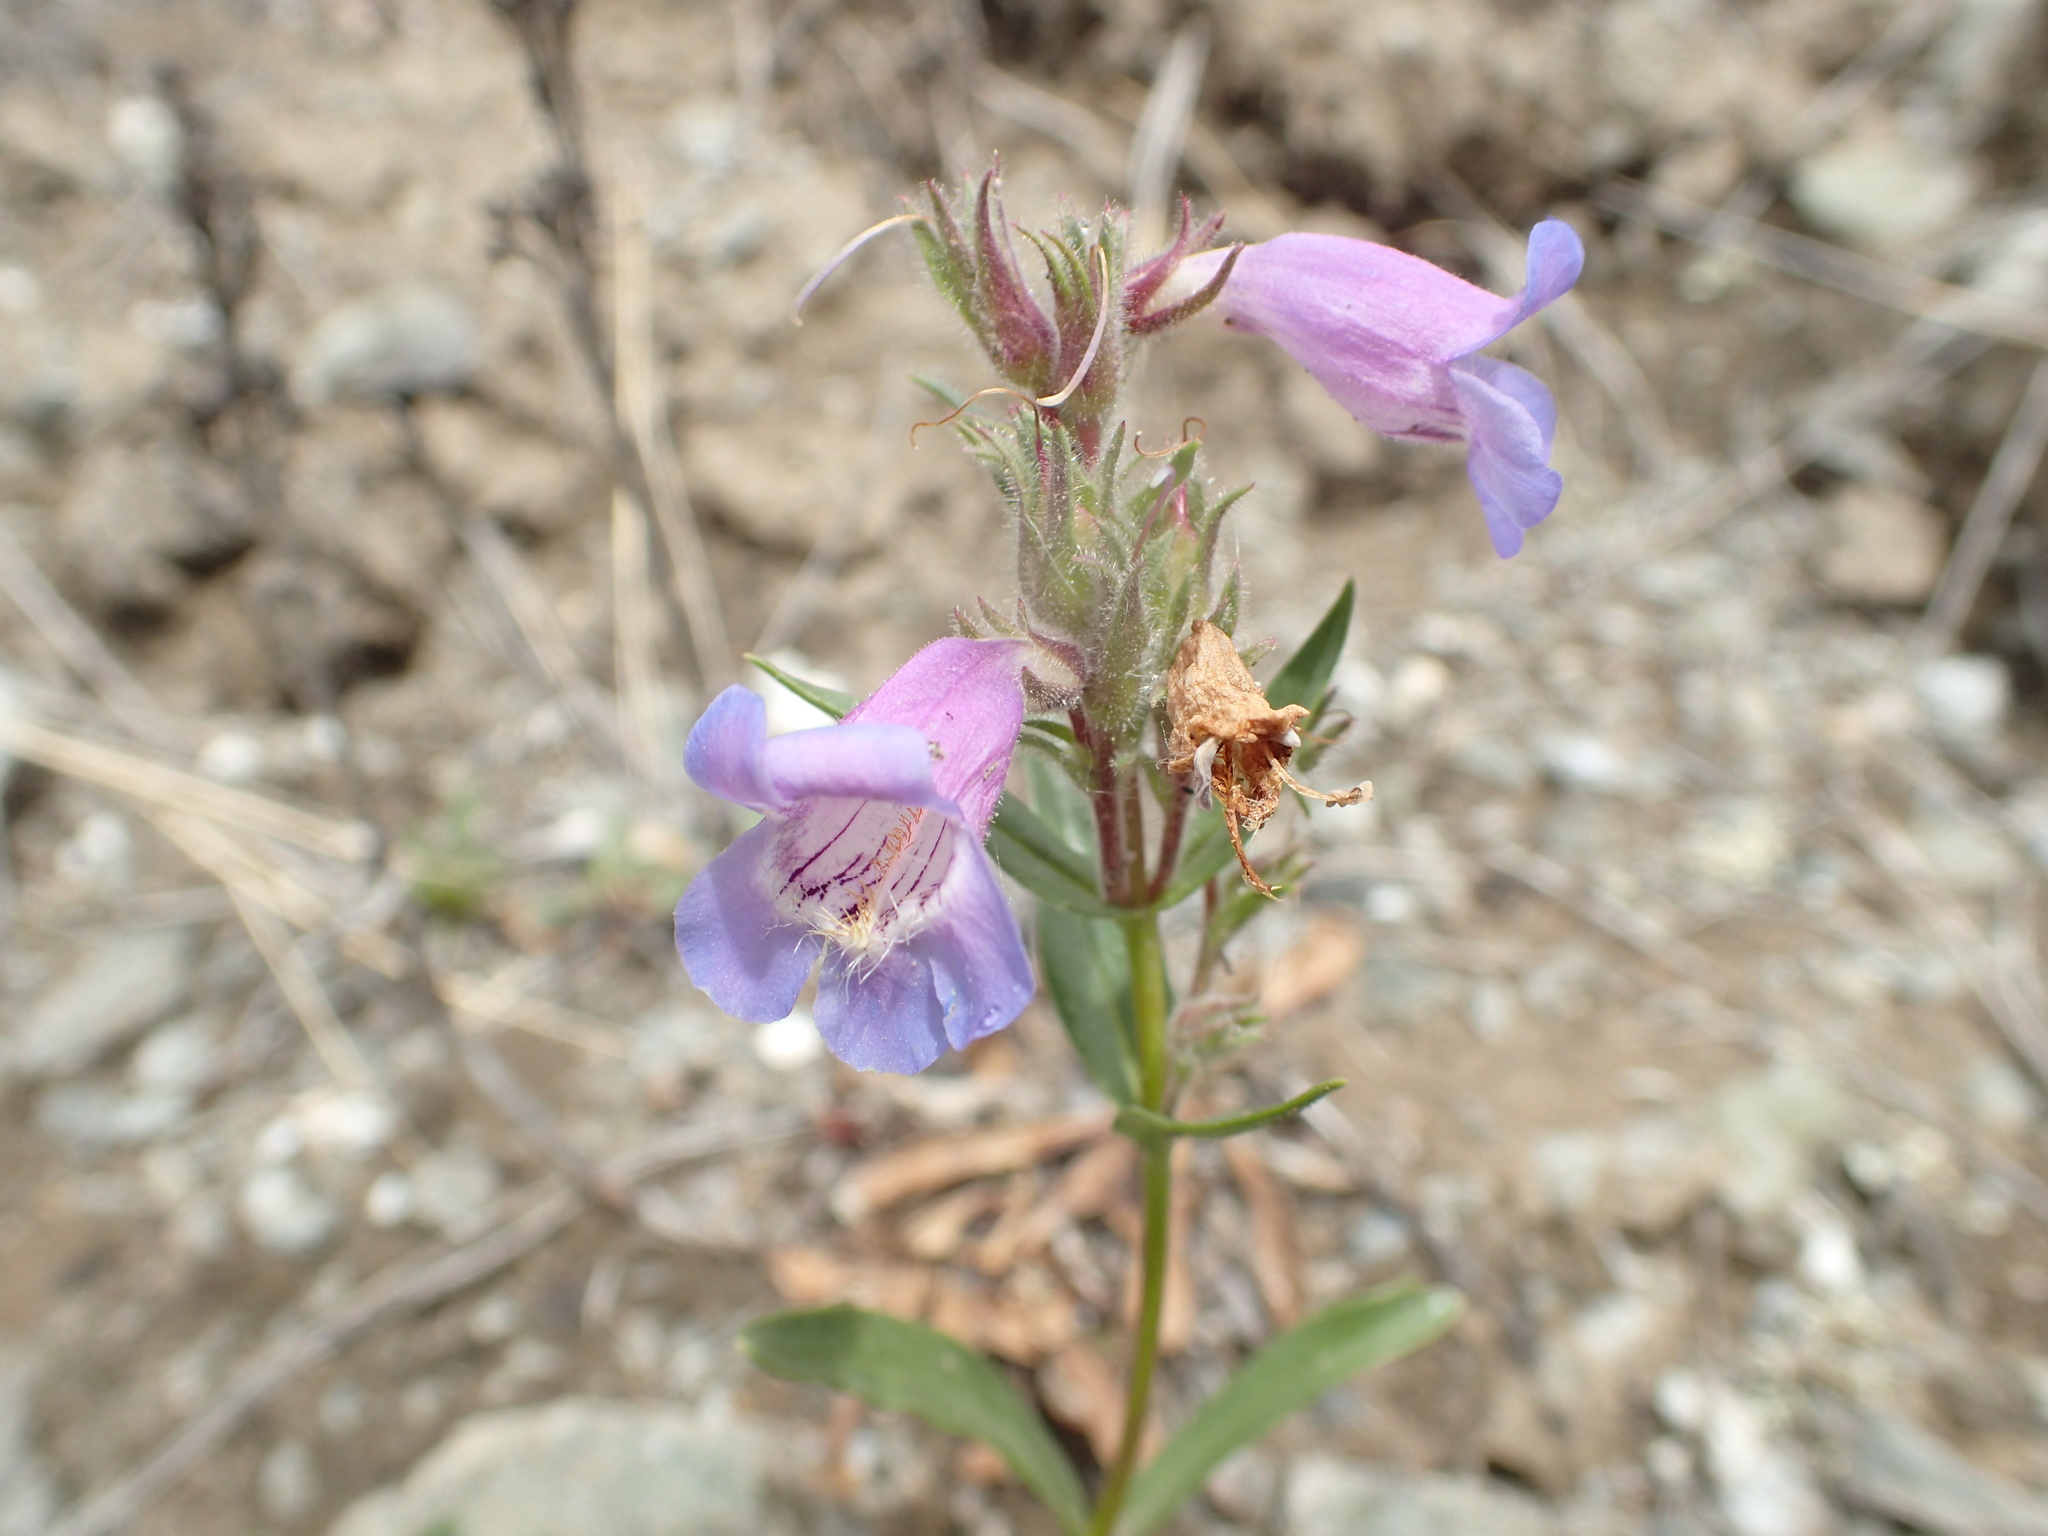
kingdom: Plantae
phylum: Tracheophyta
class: Magnoliopsida
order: Lamiales
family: Plantaginaceae
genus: Penstemon
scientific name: Penstemon gormanii
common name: Gorman's beardtongue
